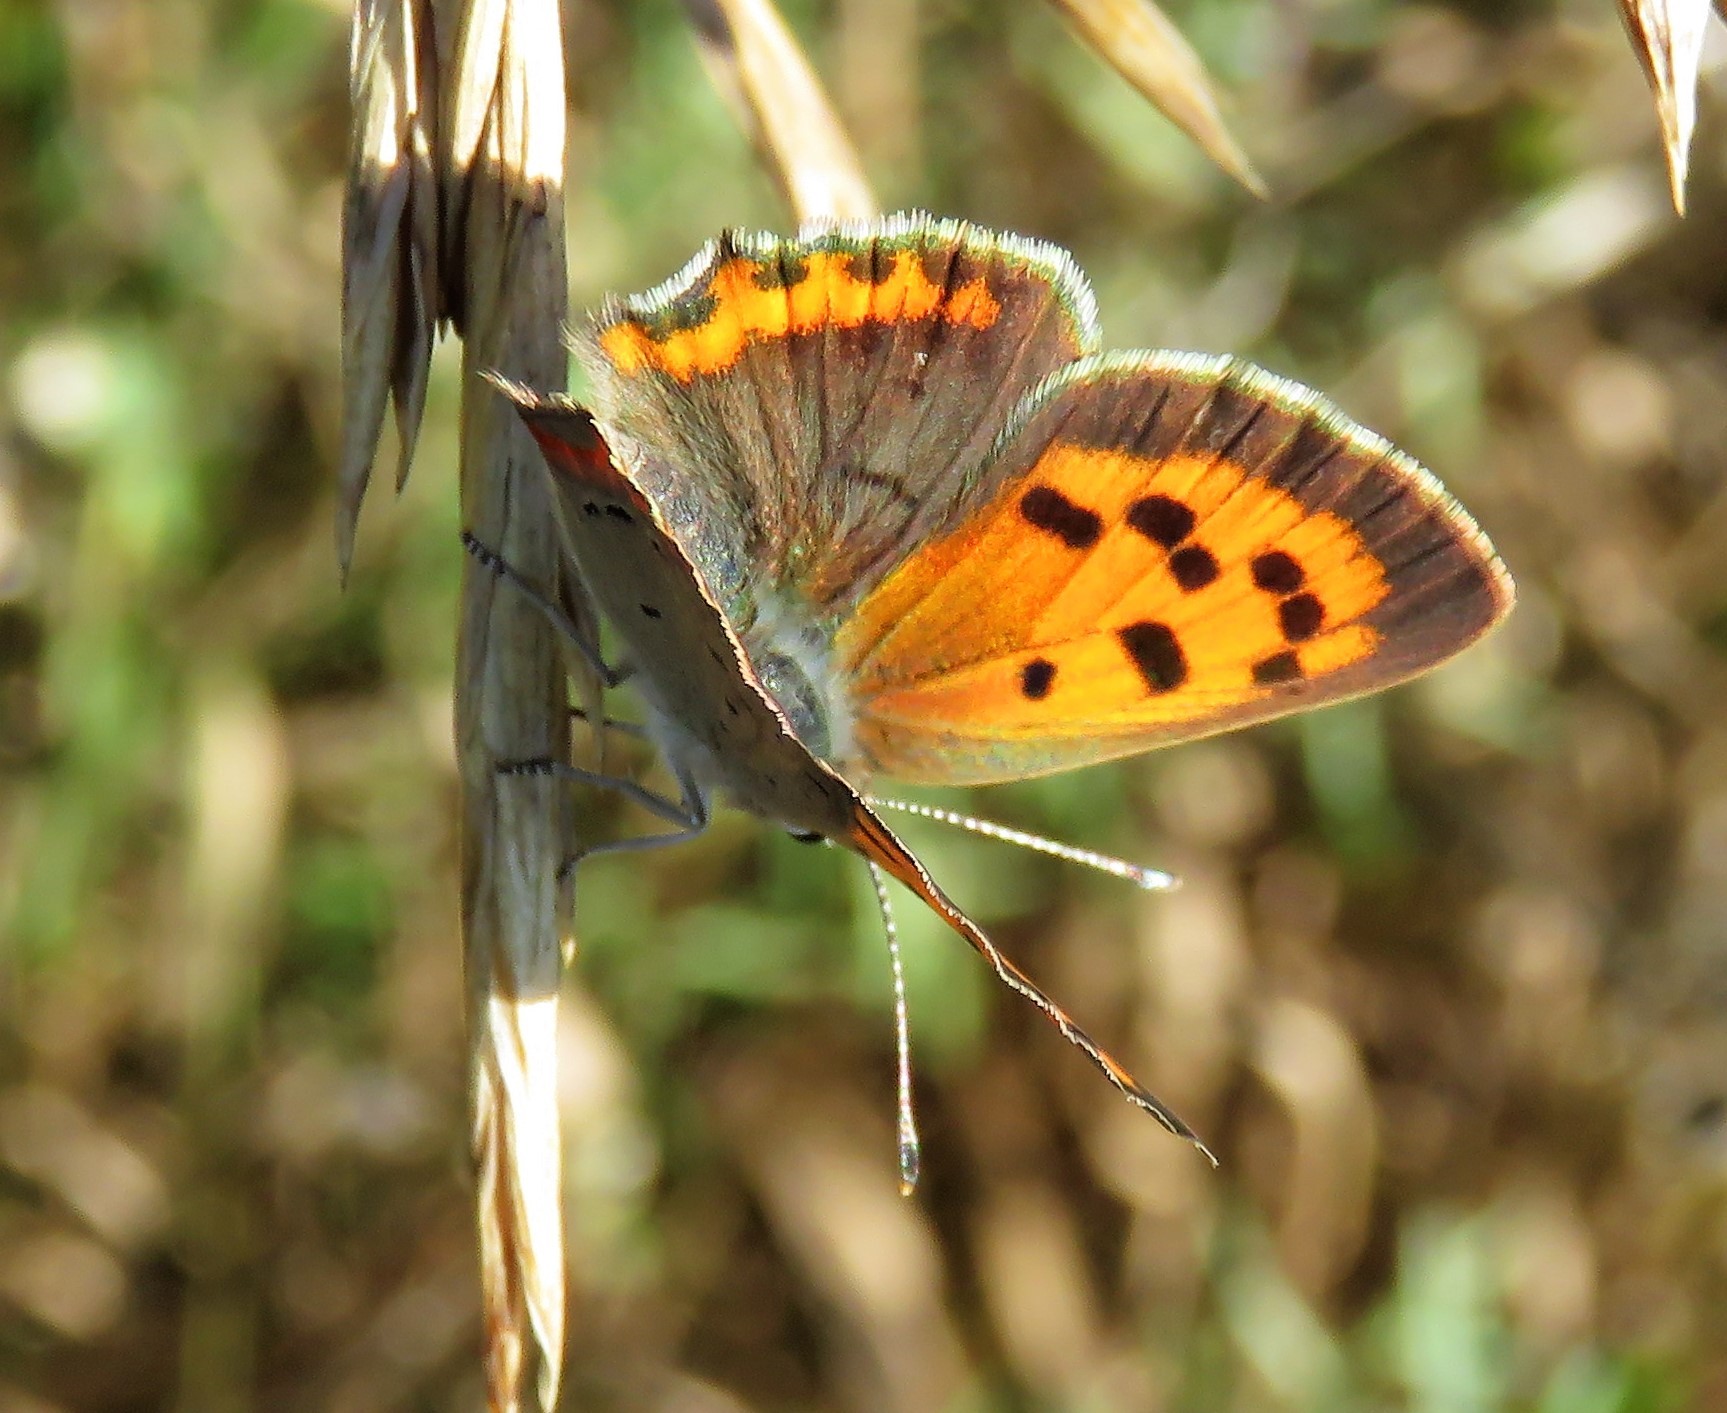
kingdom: Animalia
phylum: Arthropoda
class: Insecta
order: Lepidoptera
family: Lycaenidae
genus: Lycaena
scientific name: Lycaena hypophlaeas
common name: American copper
